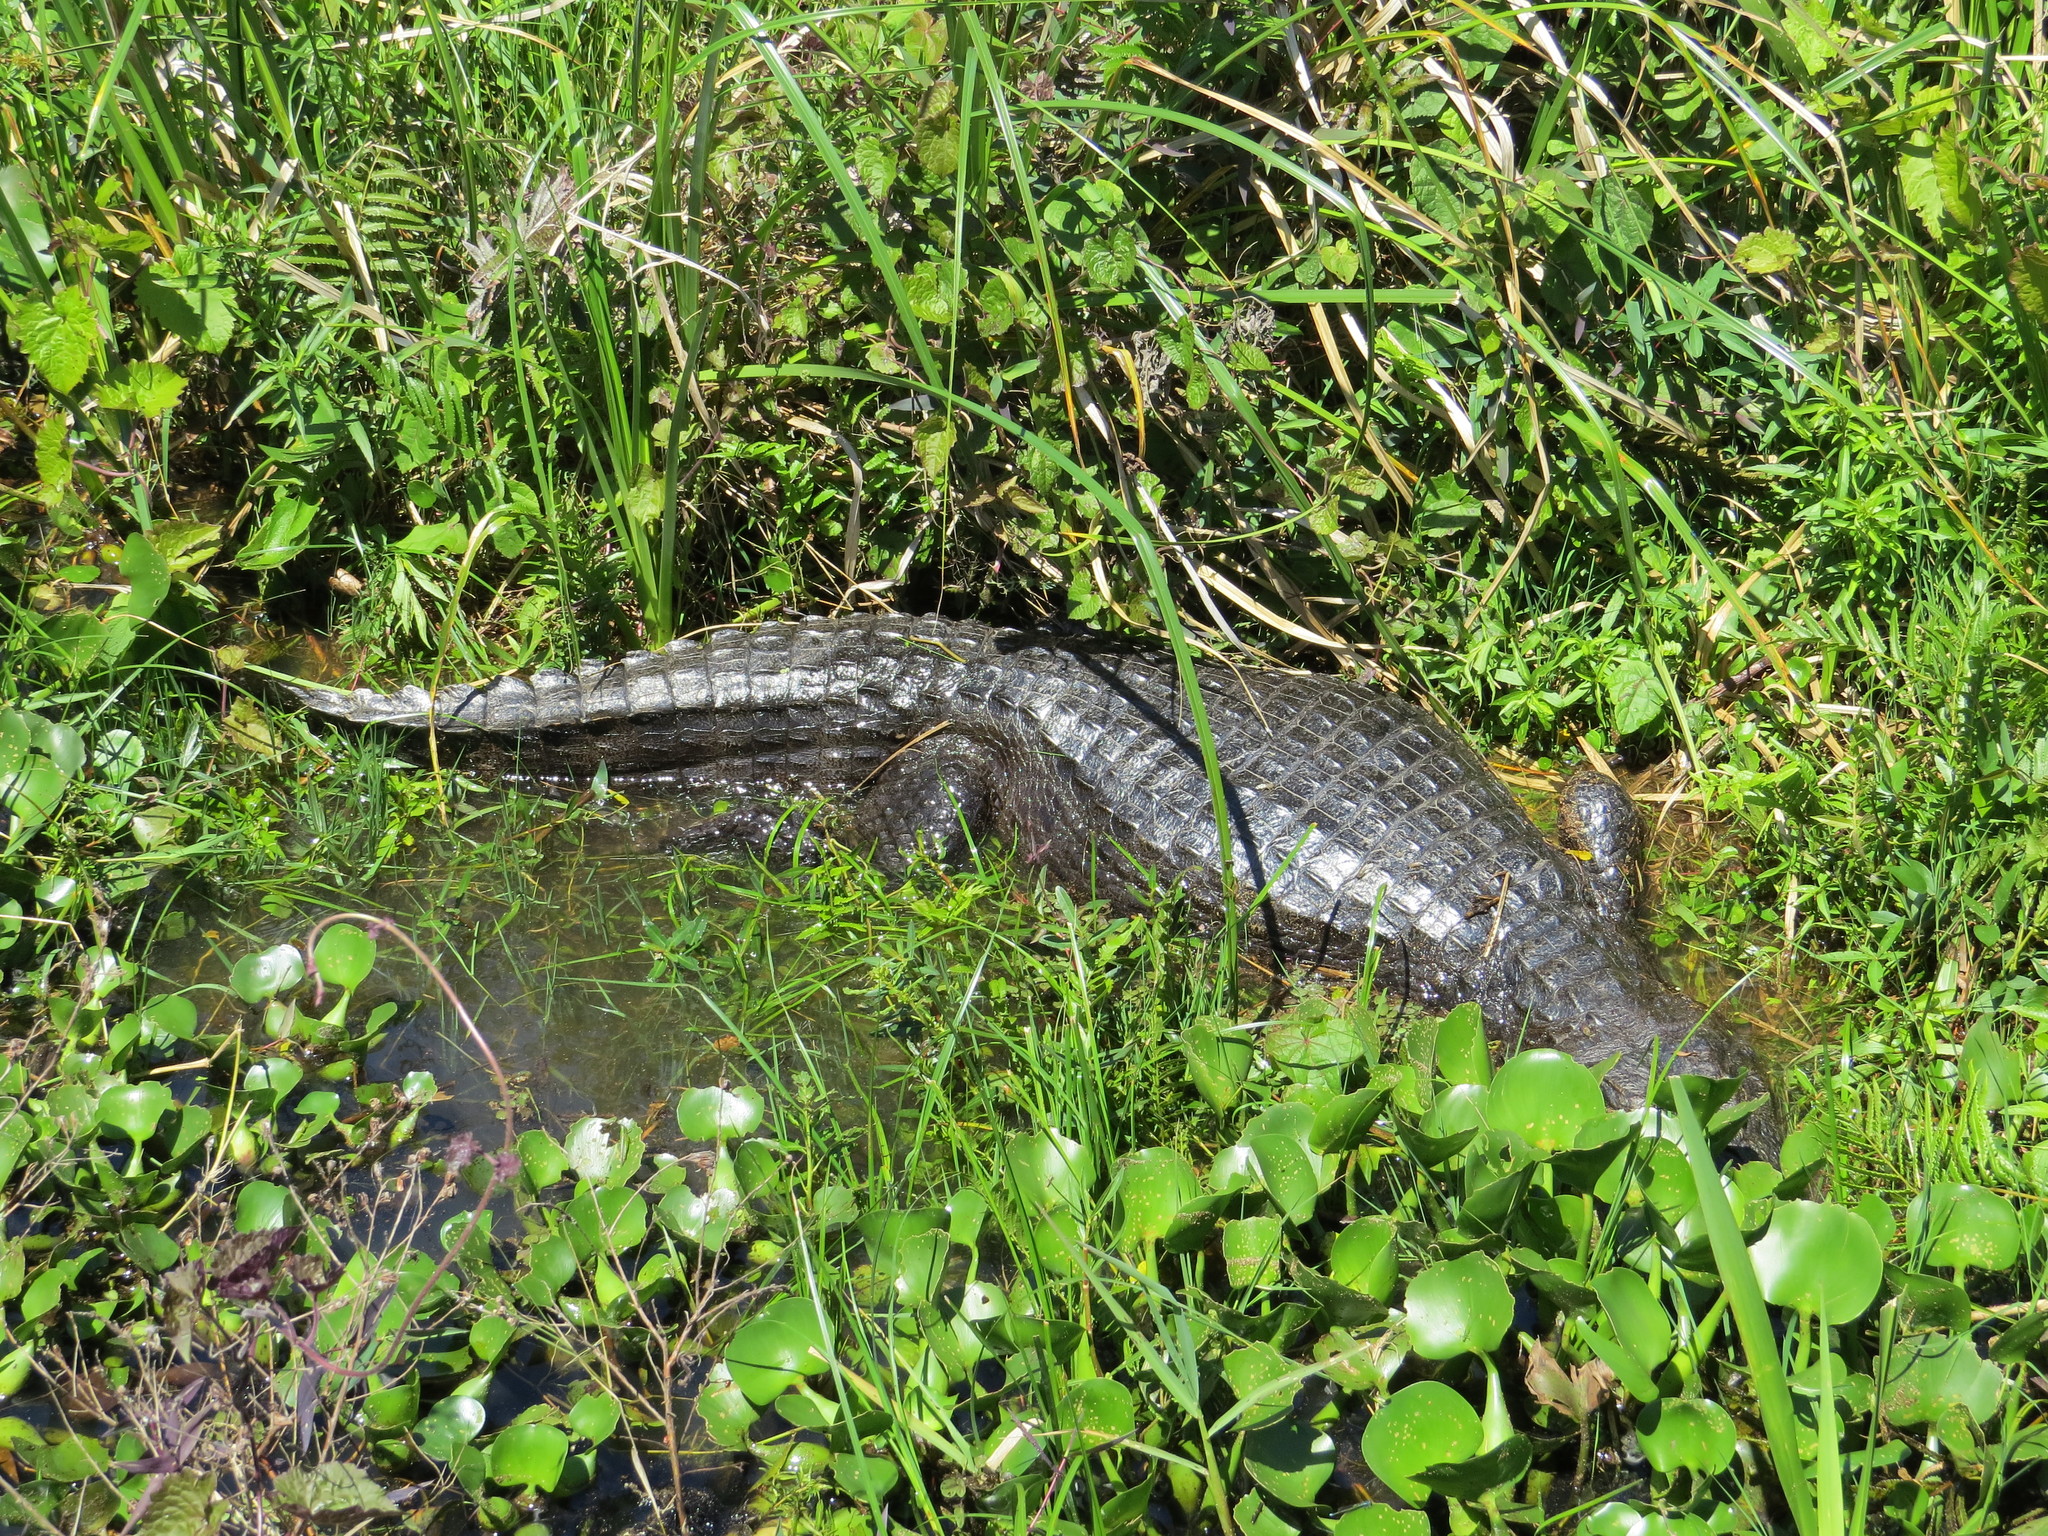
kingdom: Animalia
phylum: Chordata
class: Crocodylia
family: Alligatoridae
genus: Caiman
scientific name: Caiman yacare
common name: Yacare caiman
